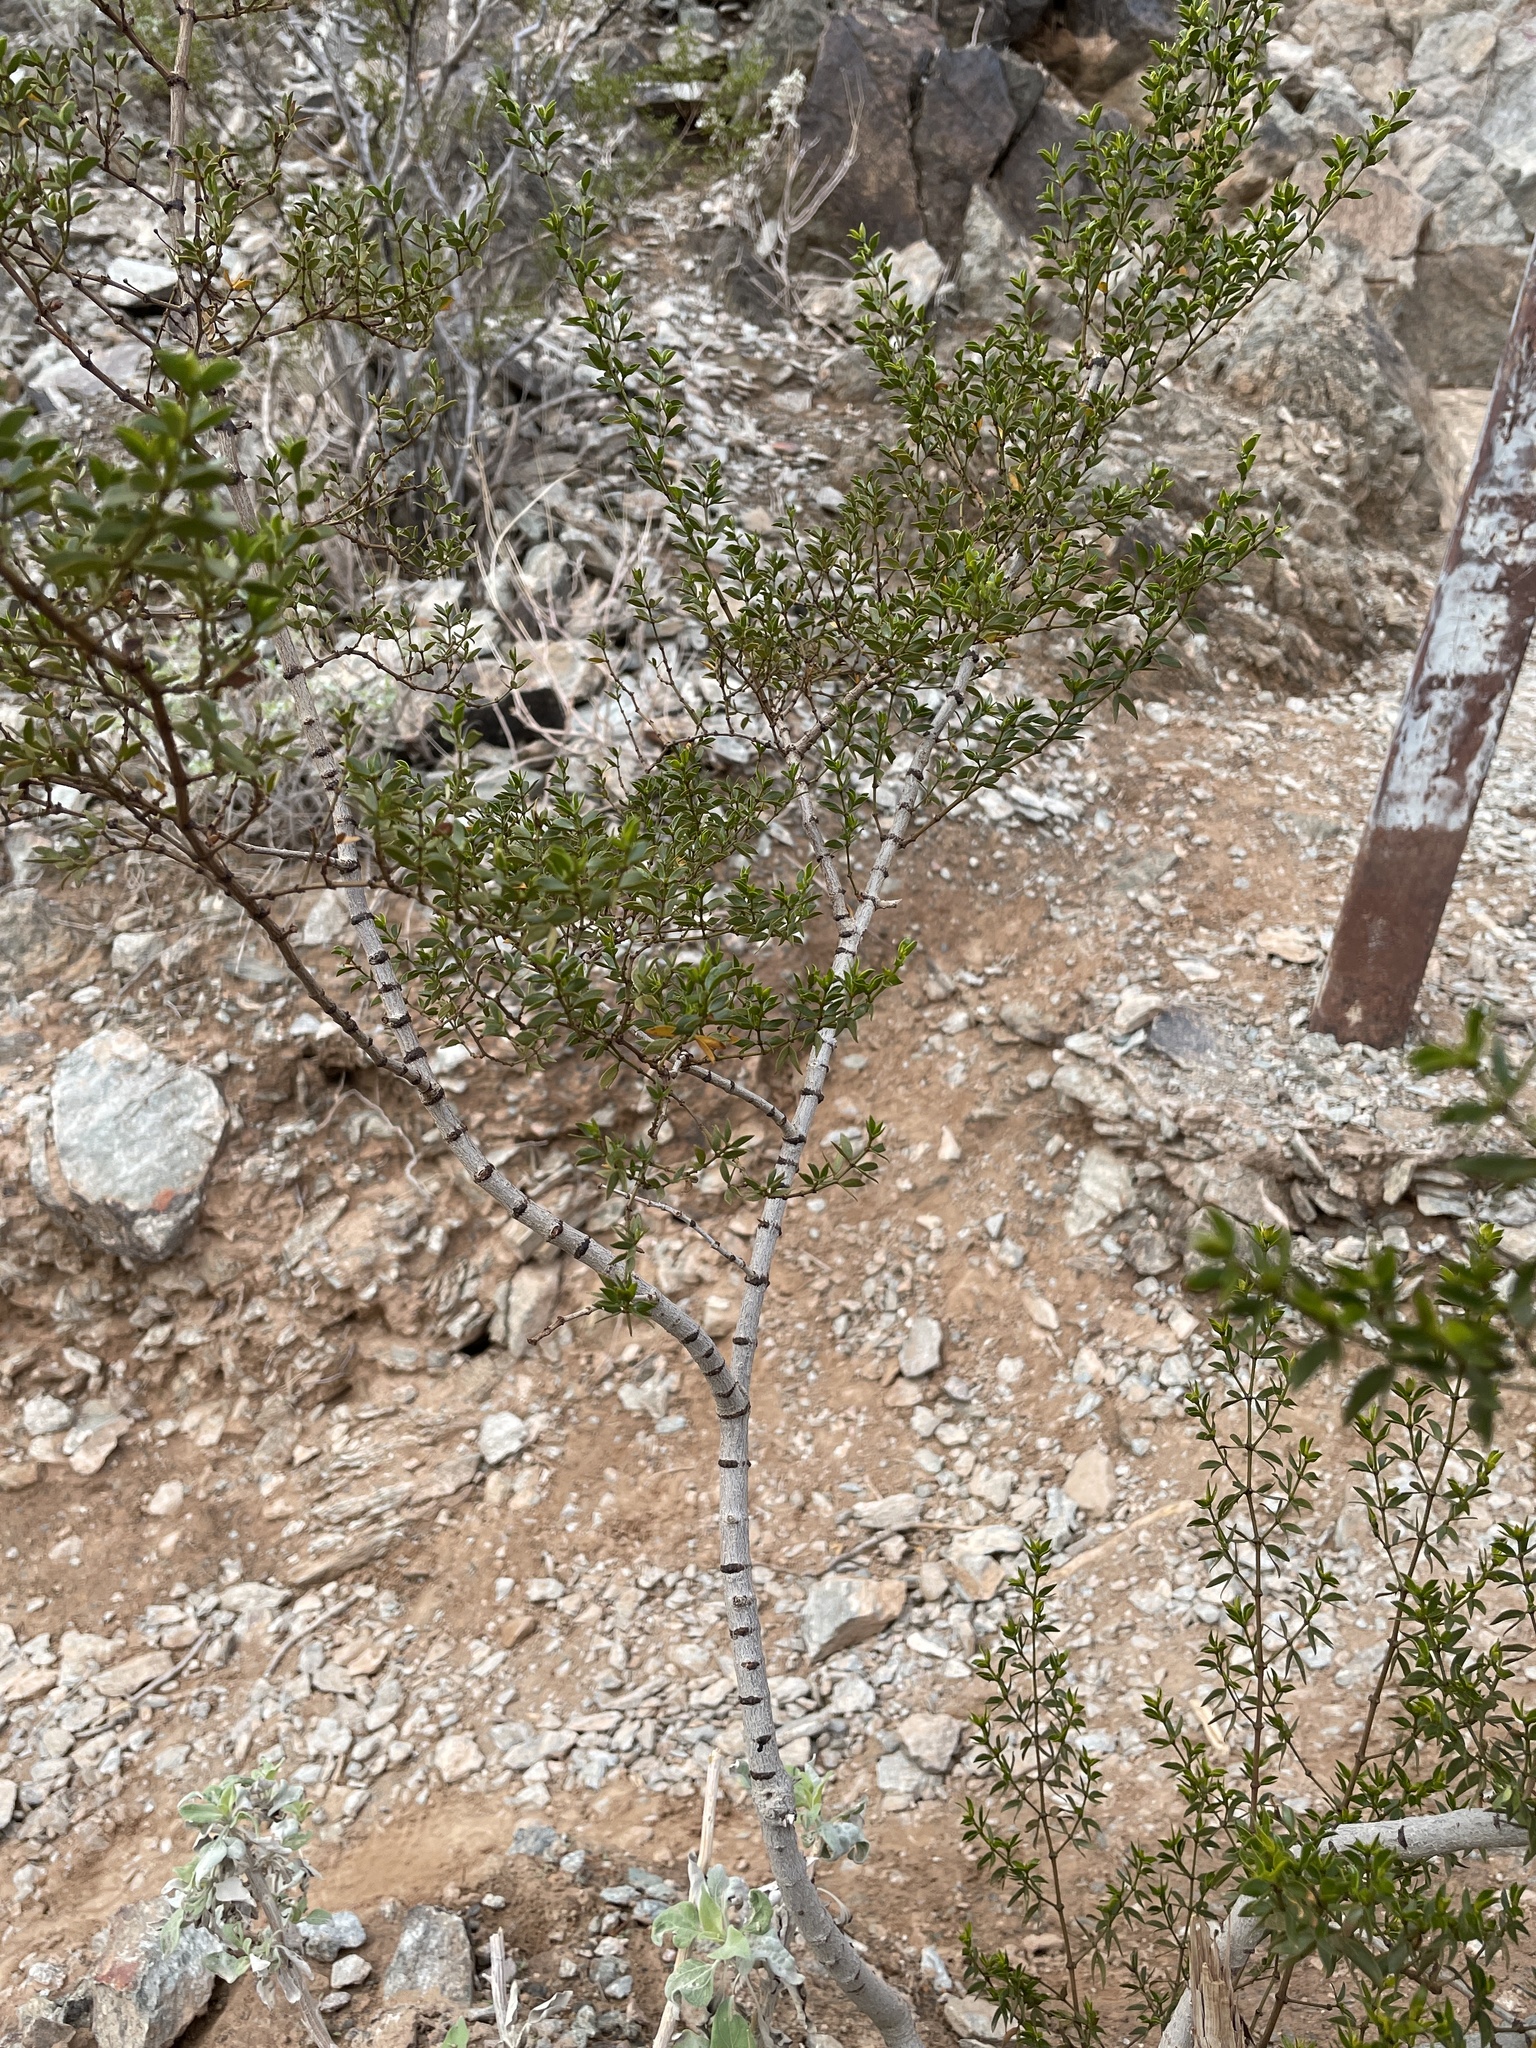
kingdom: Plantae
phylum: Tracheophyta
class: Magnoliopsida
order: Zygophyllales
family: Zygophyllaceae
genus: Larrea
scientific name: Larrea tridentata
